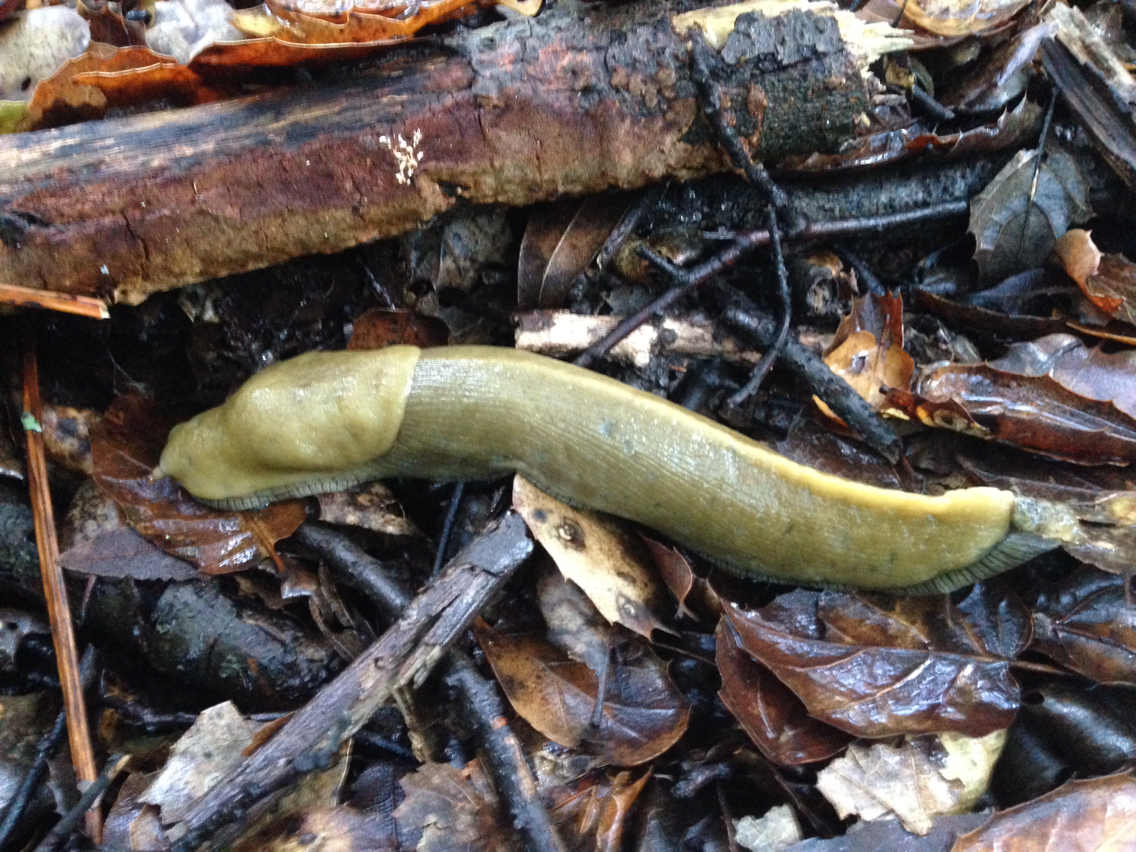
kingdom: Animalia
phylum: Mollusca
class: Gastropoda
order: Stylommatophora
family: Ariolimacidae
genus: Ariolimax
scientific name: Ariolimax
